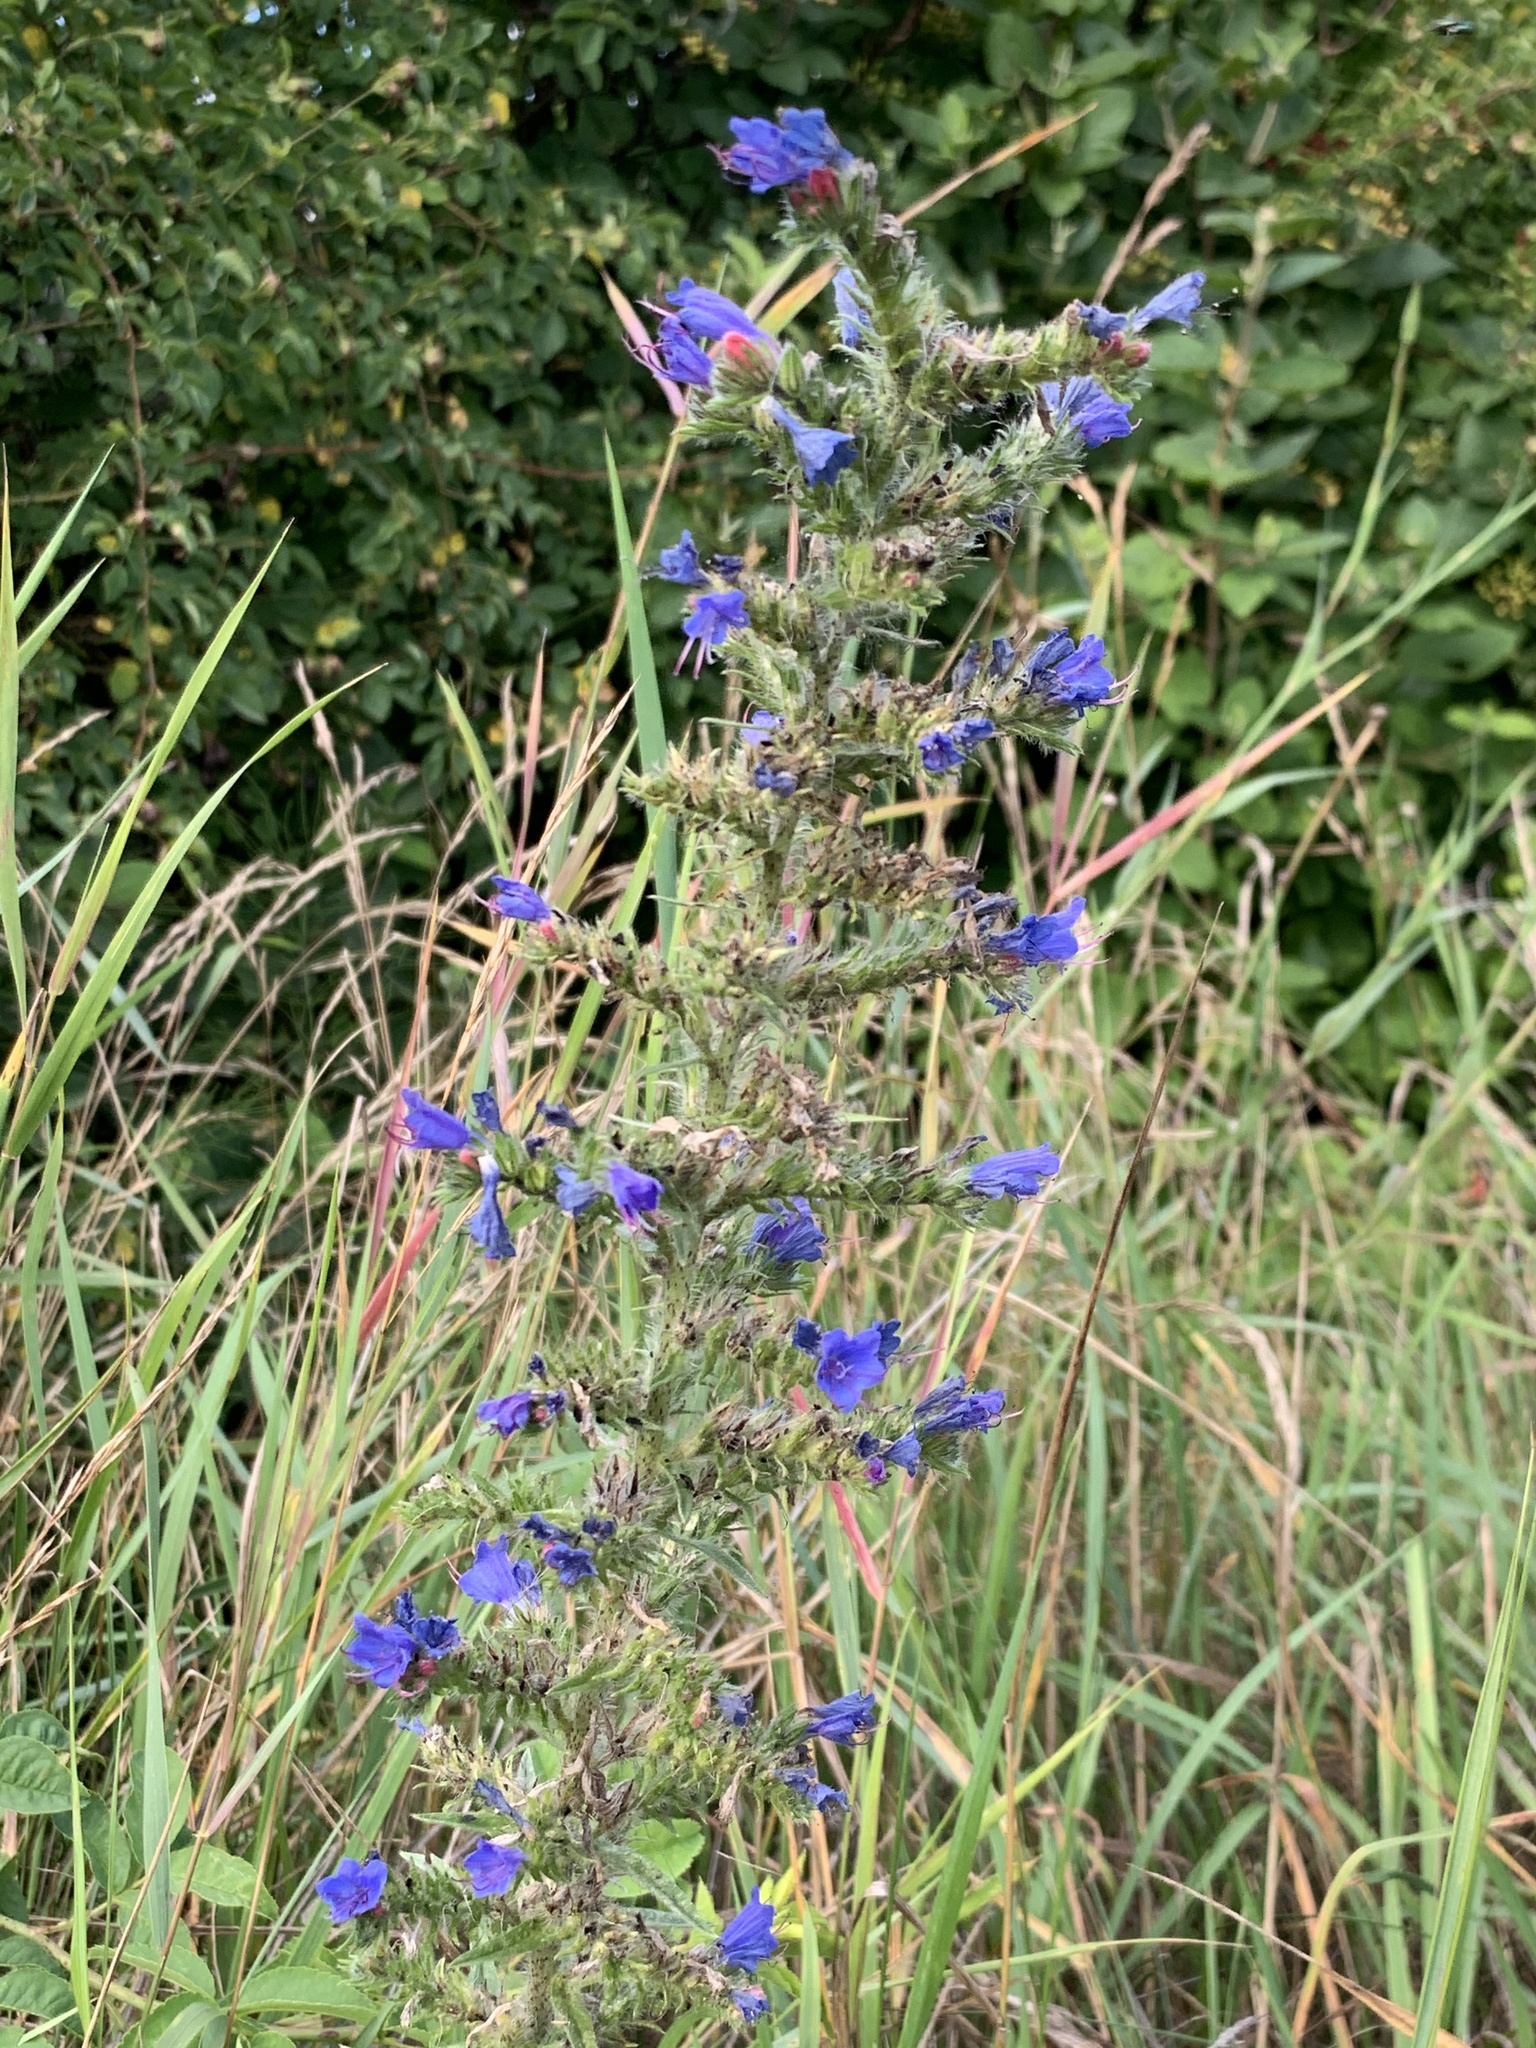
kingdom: Plantae
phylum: Tracheophyta
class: Magnoliopsida
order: Boraginales
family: Boraginaceae
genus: Echium
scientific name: Echium vulgare
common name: Common viper's bugloss
